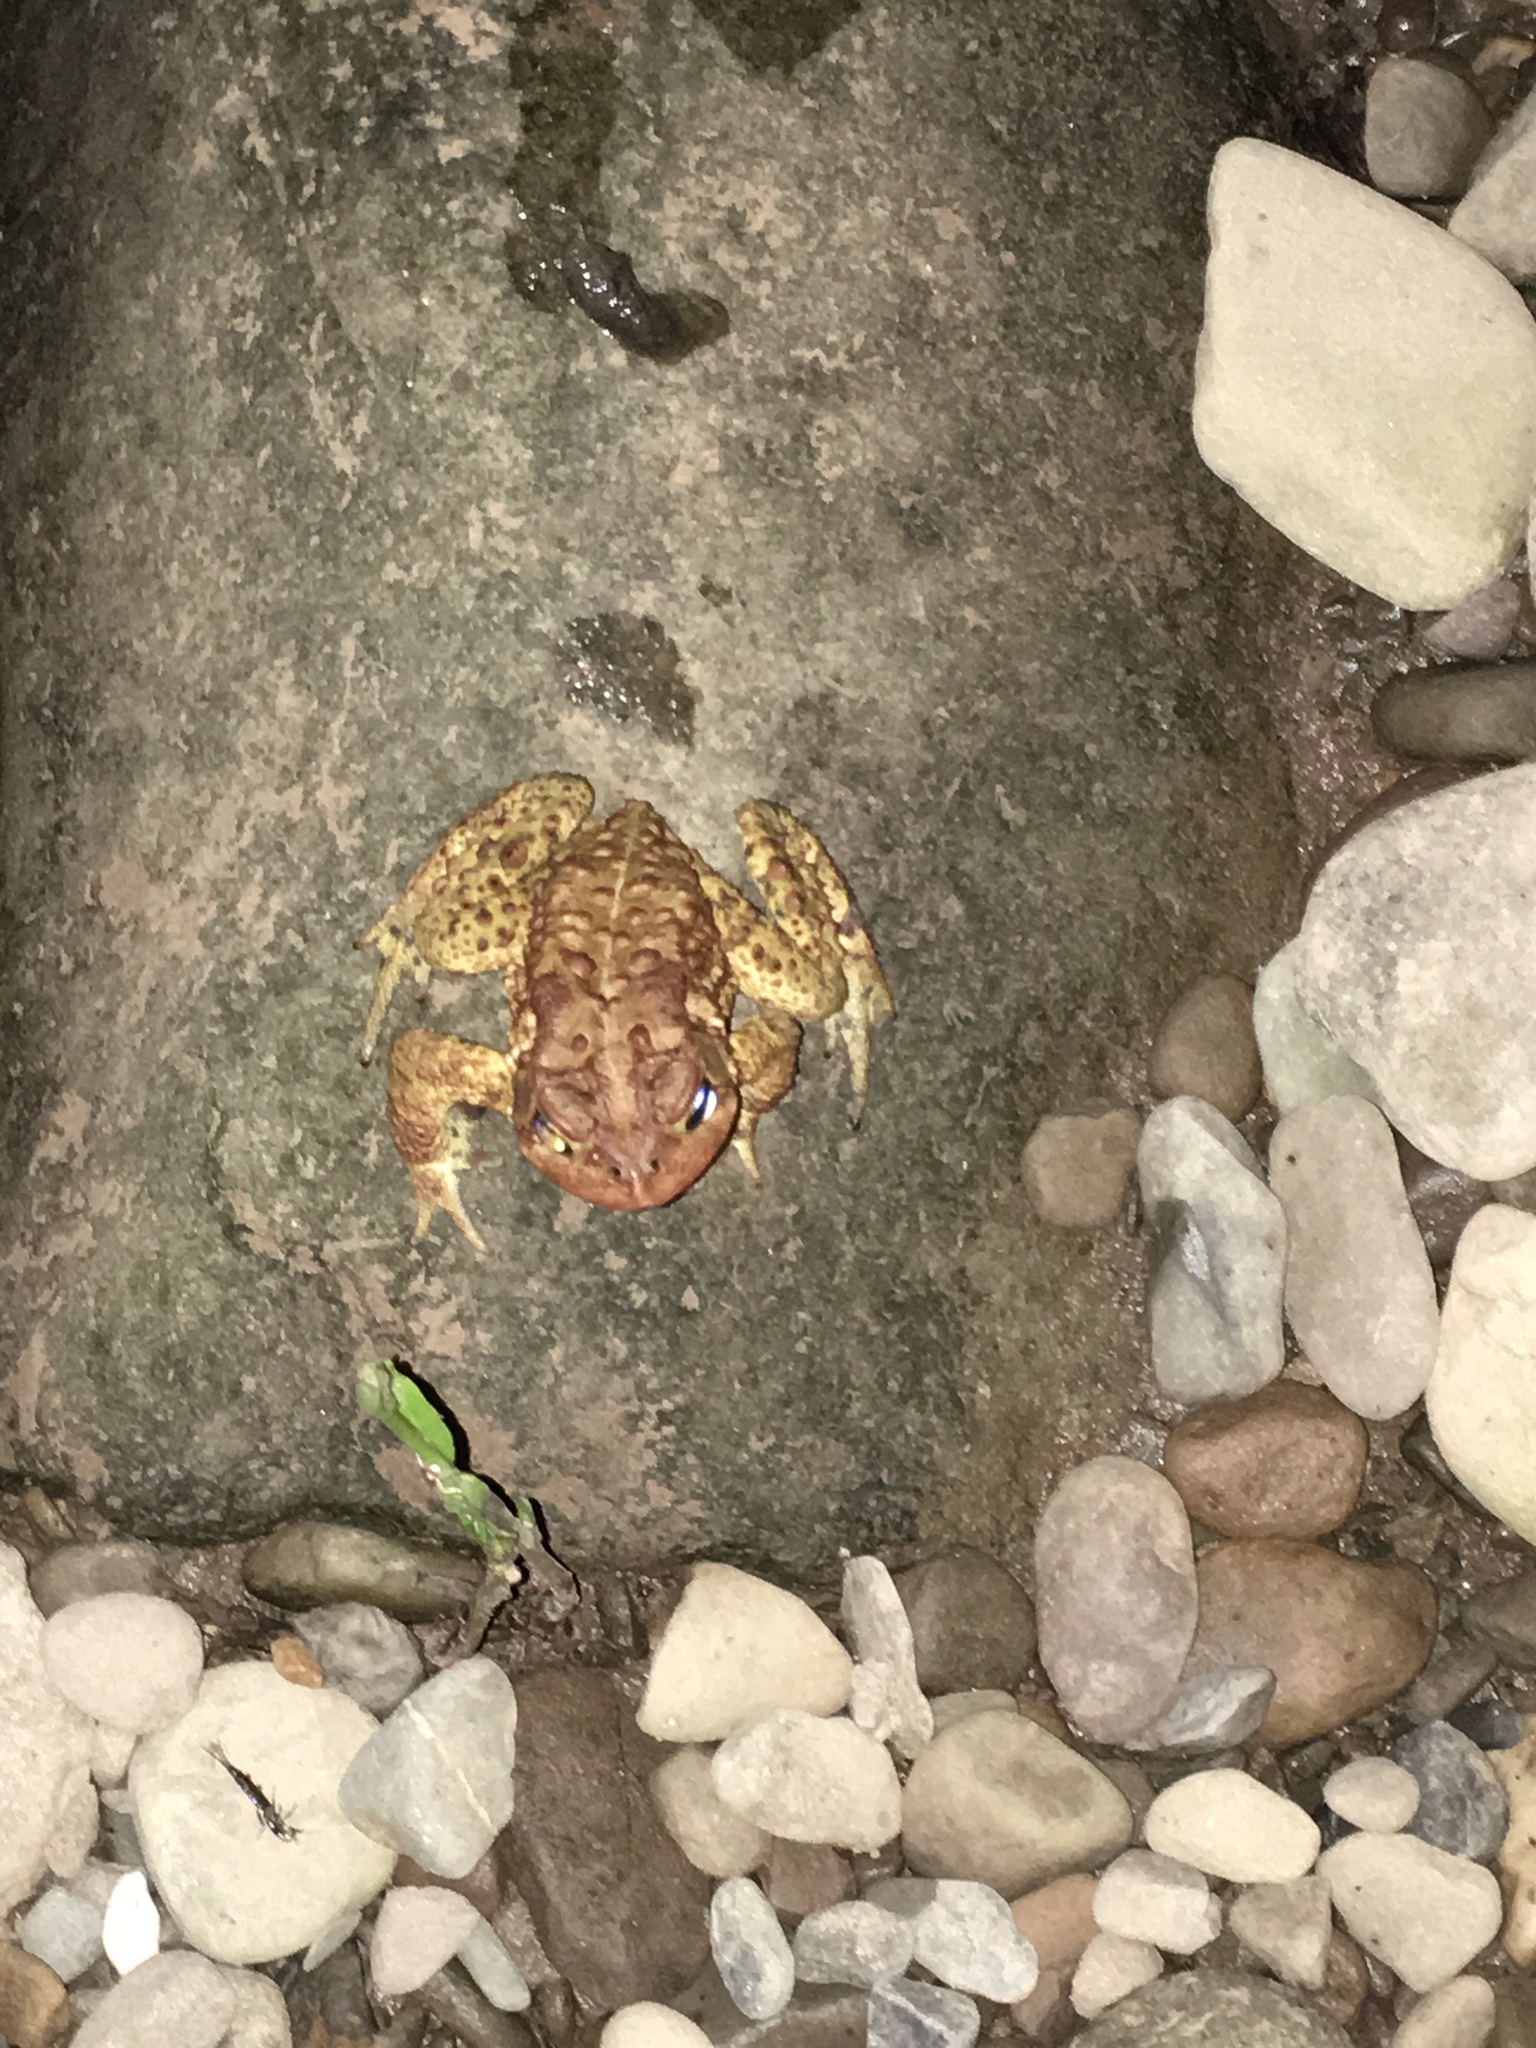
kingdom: Animalia
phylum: Chordata
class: Amphibia
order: Anura
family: Bufonidae
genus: Anaxyrus
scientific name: Anaxyrus americanus
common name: American toad
